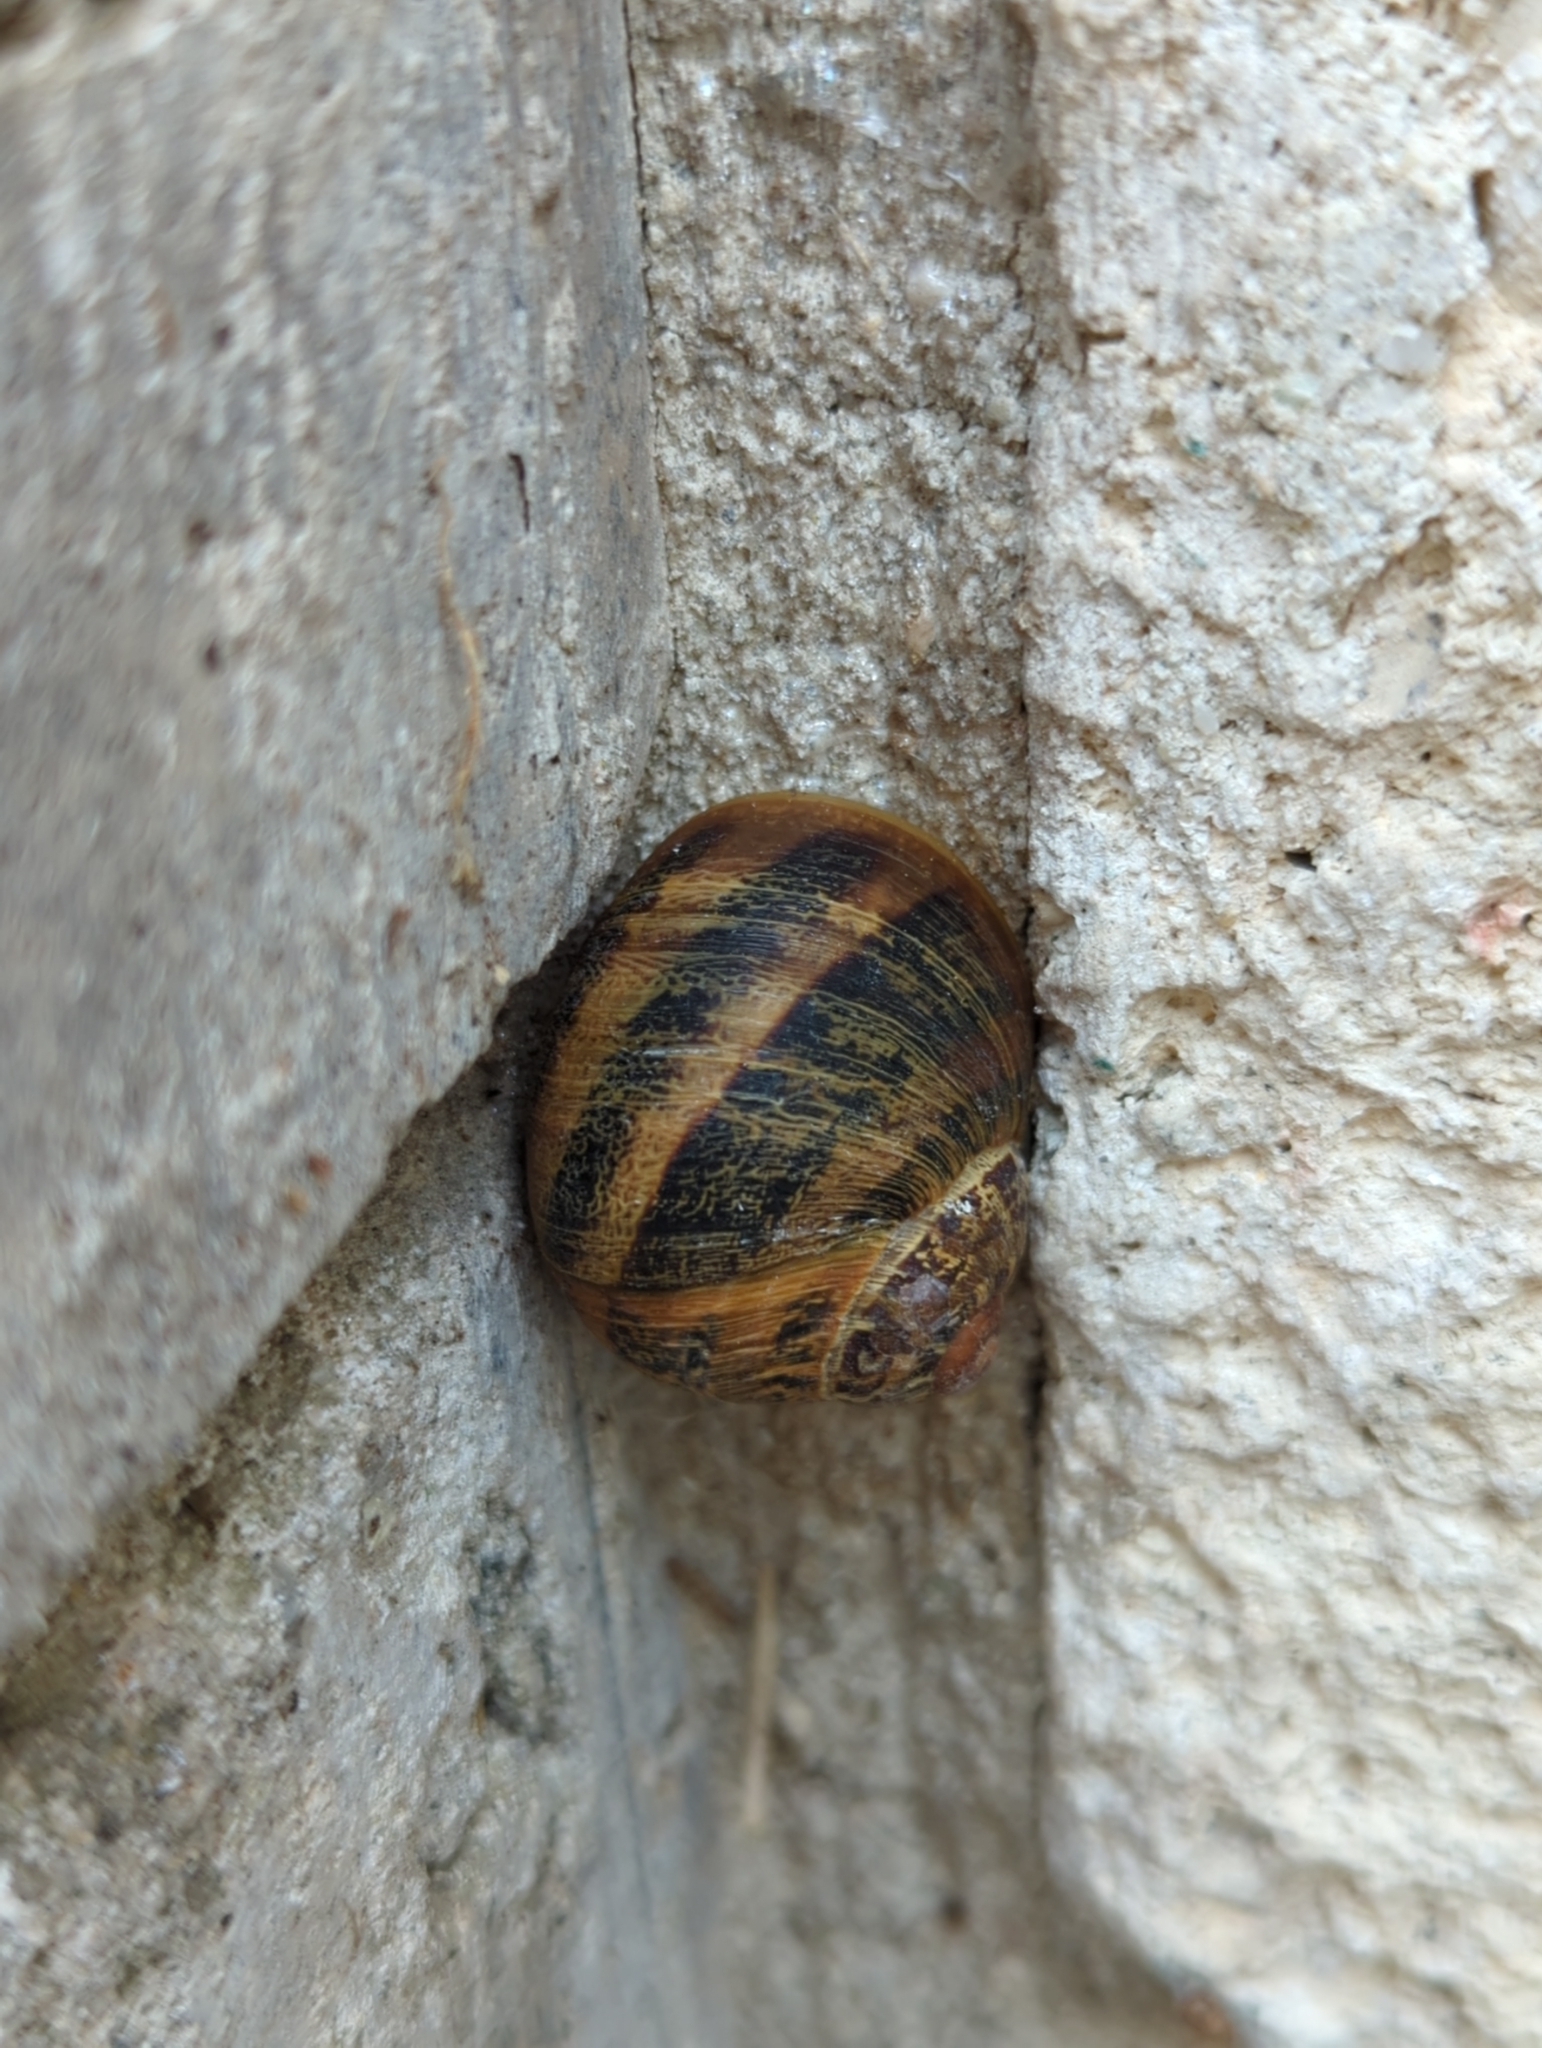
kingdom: Animalia
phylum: Mollusca
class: Gastropoda
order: Stylommatophora
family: Helicidae
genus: Cornu
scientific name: Cornu aspersum
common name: Brown garden snail
